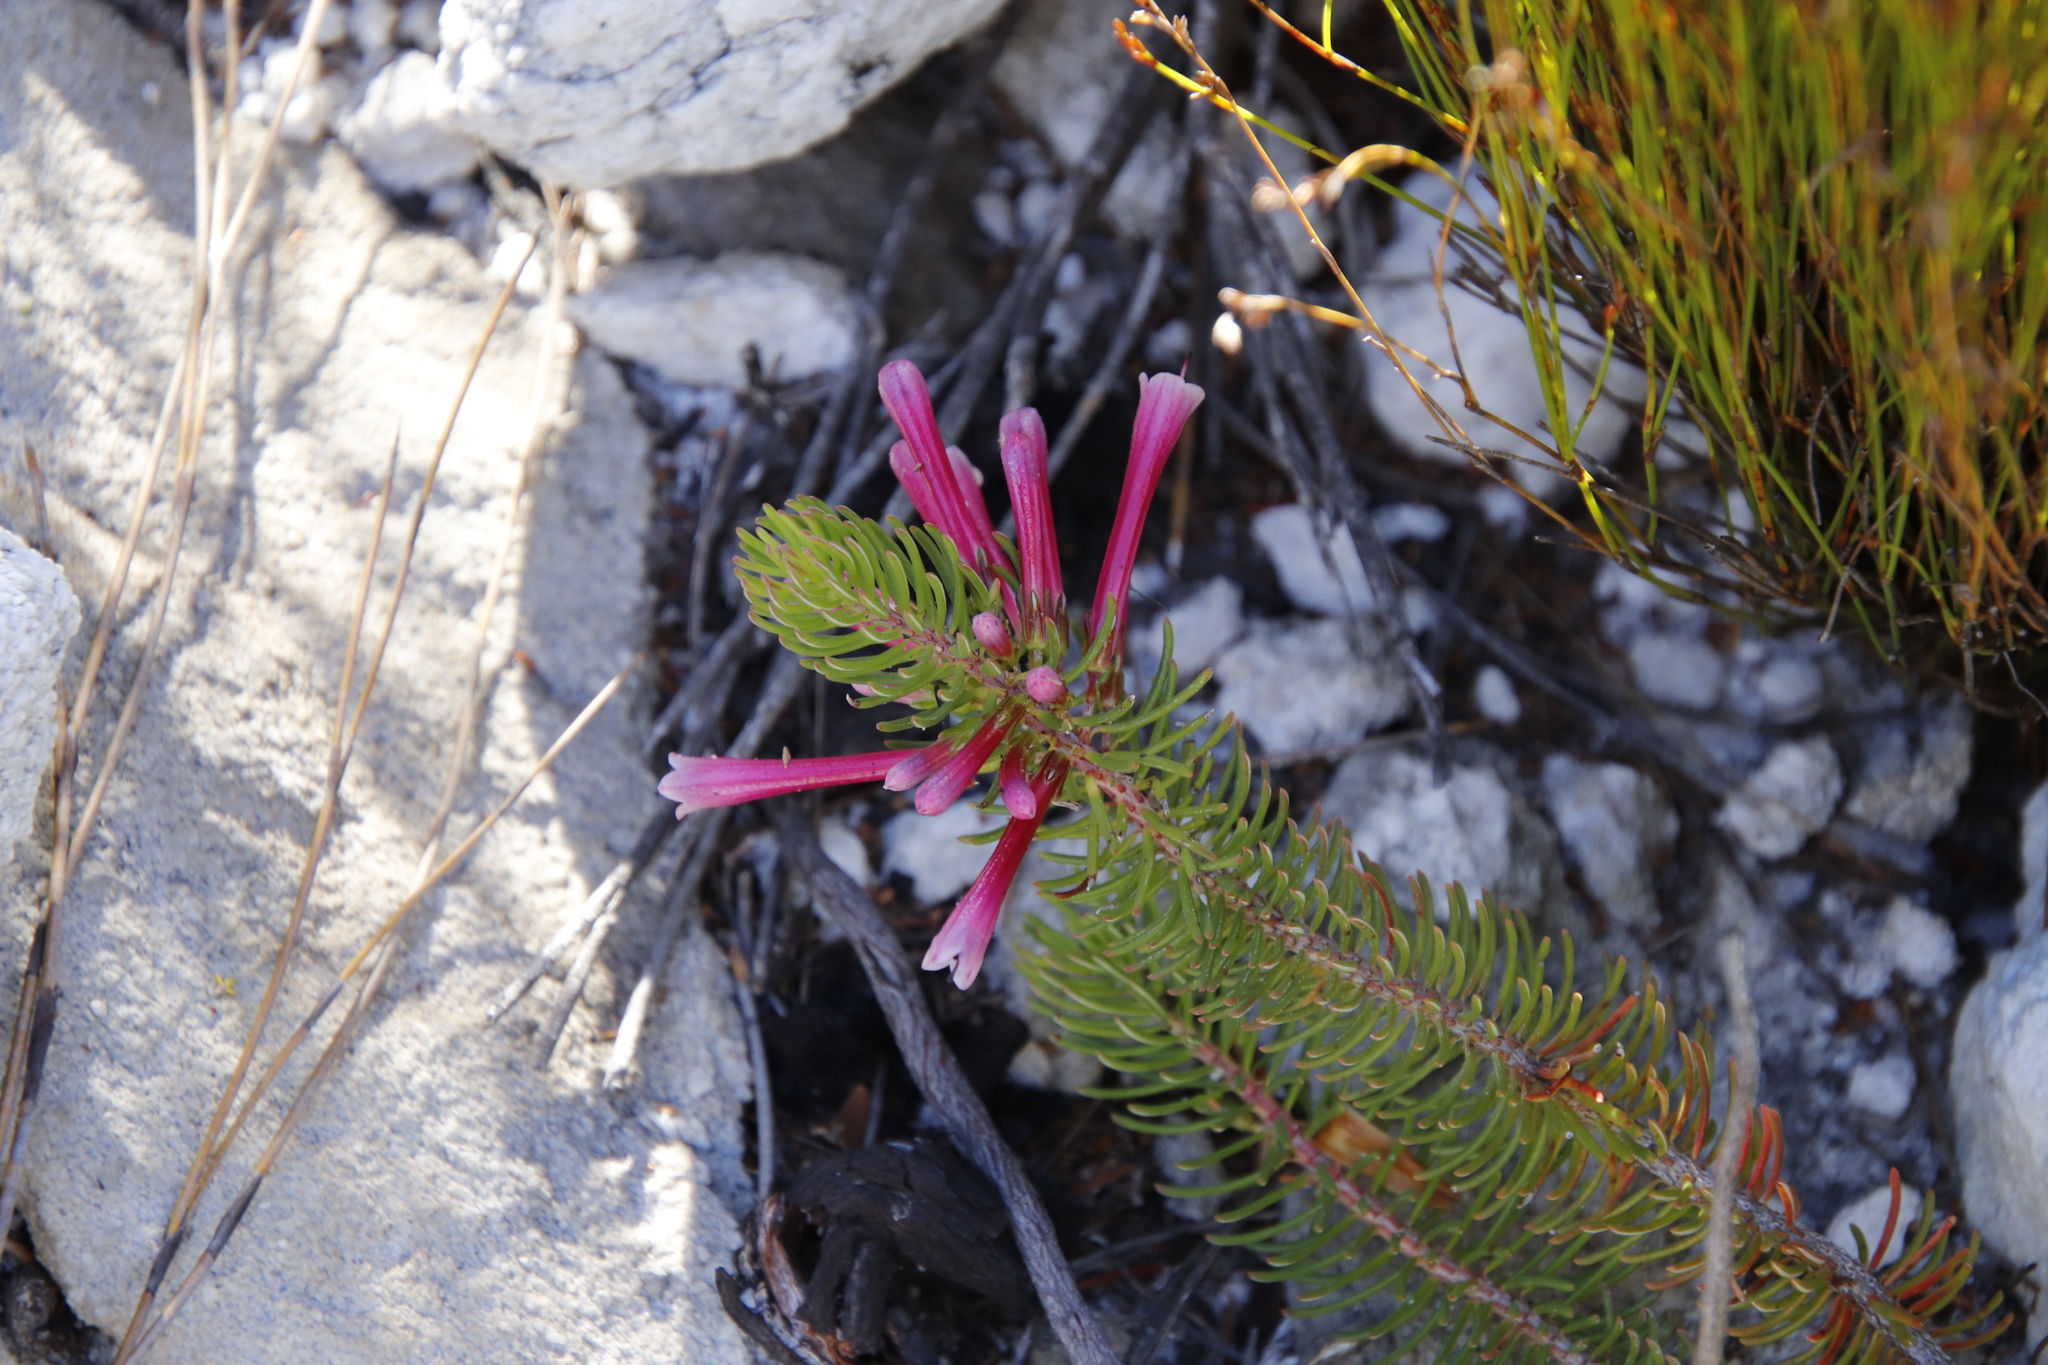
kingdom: Plantae
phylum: Tracheophyta
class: Magnoliopsida
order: Ericales
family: Ericaceae
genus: Erica
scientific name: Erica thomae
